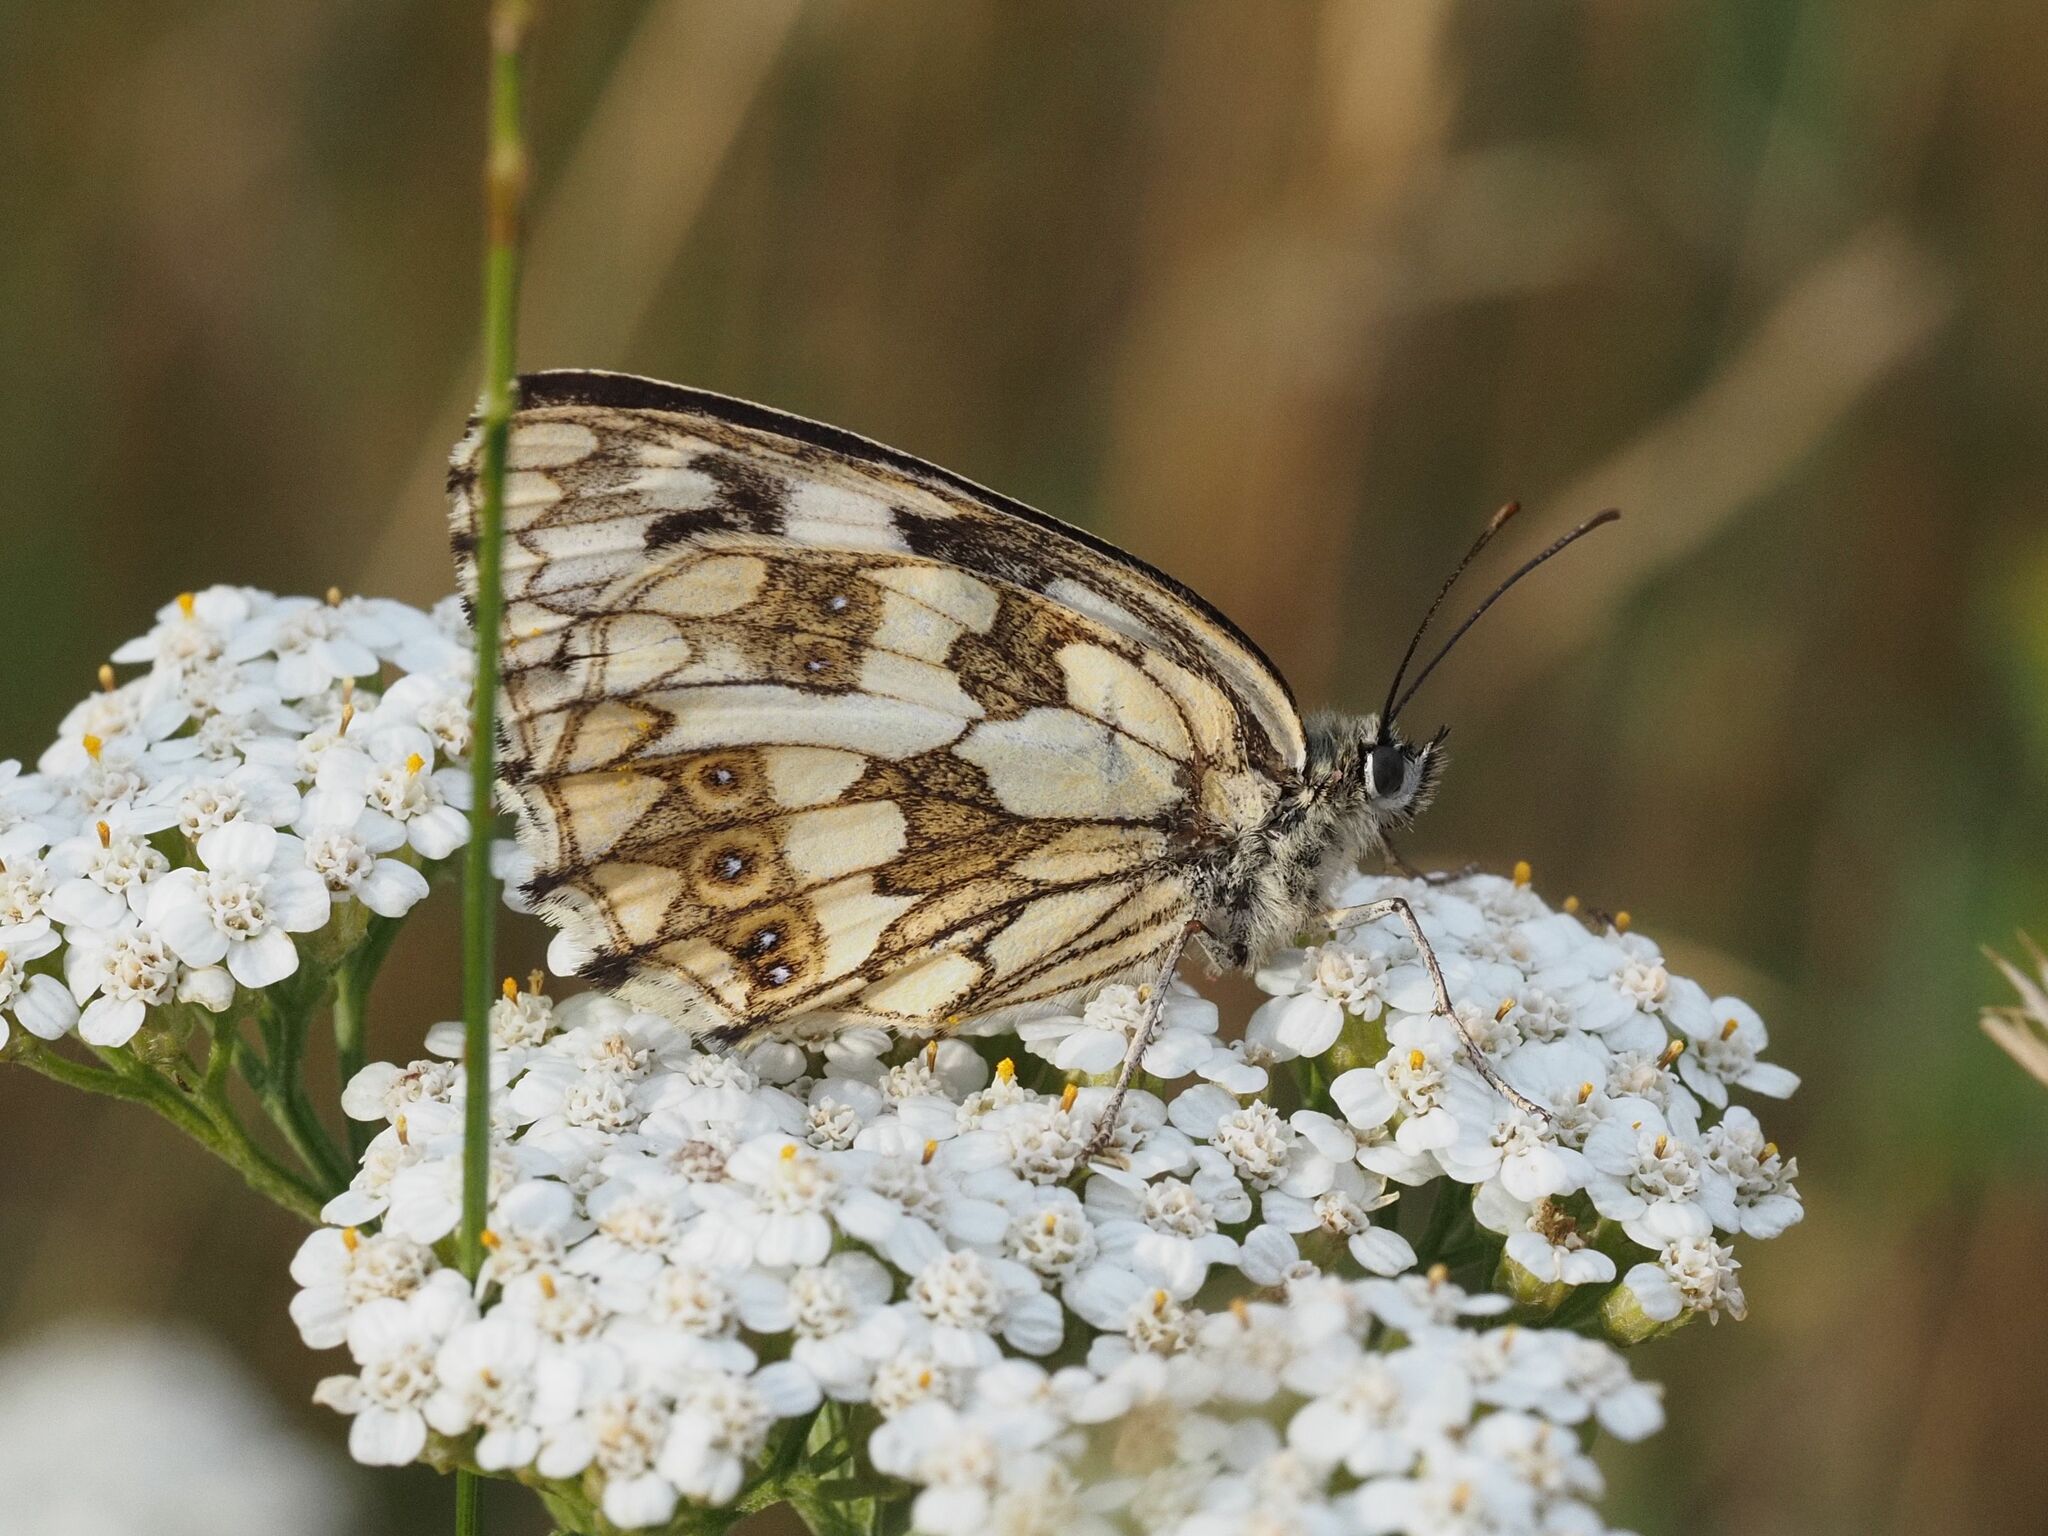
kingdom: Animalia
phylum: Arthropoda
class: Insecta
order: Lepidoptera
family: Nymphalidae
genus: Melanargia
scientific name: Melanargia galathea
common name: Marbled white
